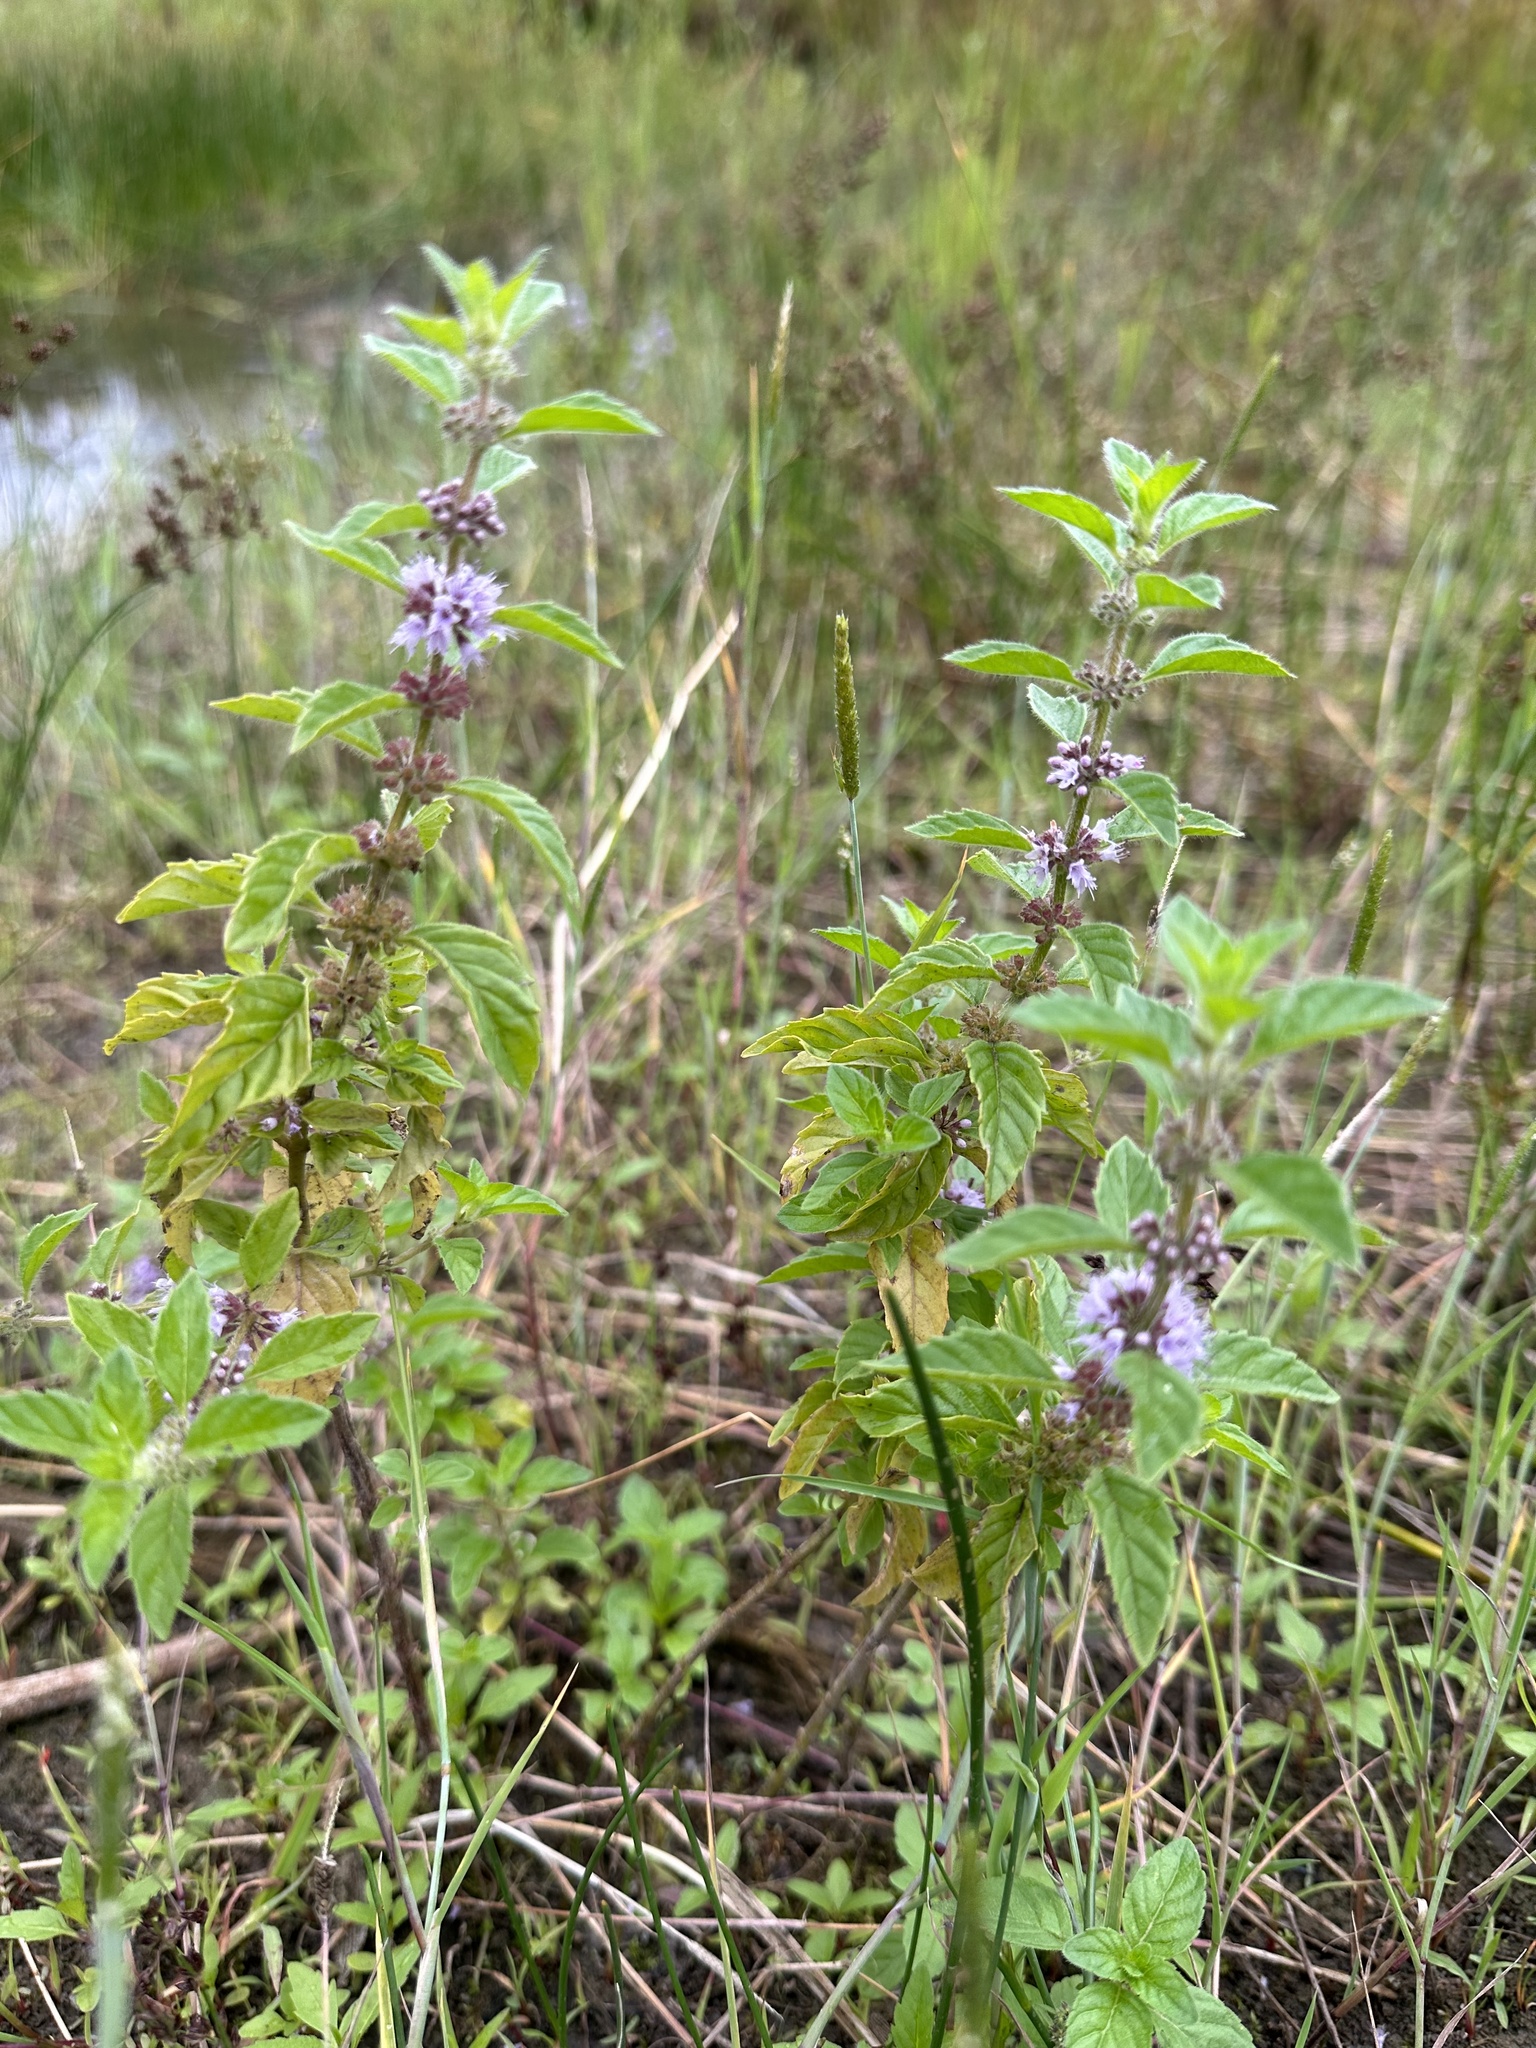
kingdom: Plantae
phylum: Tracheophyta
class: Magnoliopsida
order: Lamiales
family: Lamiaceae
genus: Mentha
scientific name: Mentha arvensis
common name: Corn mint
